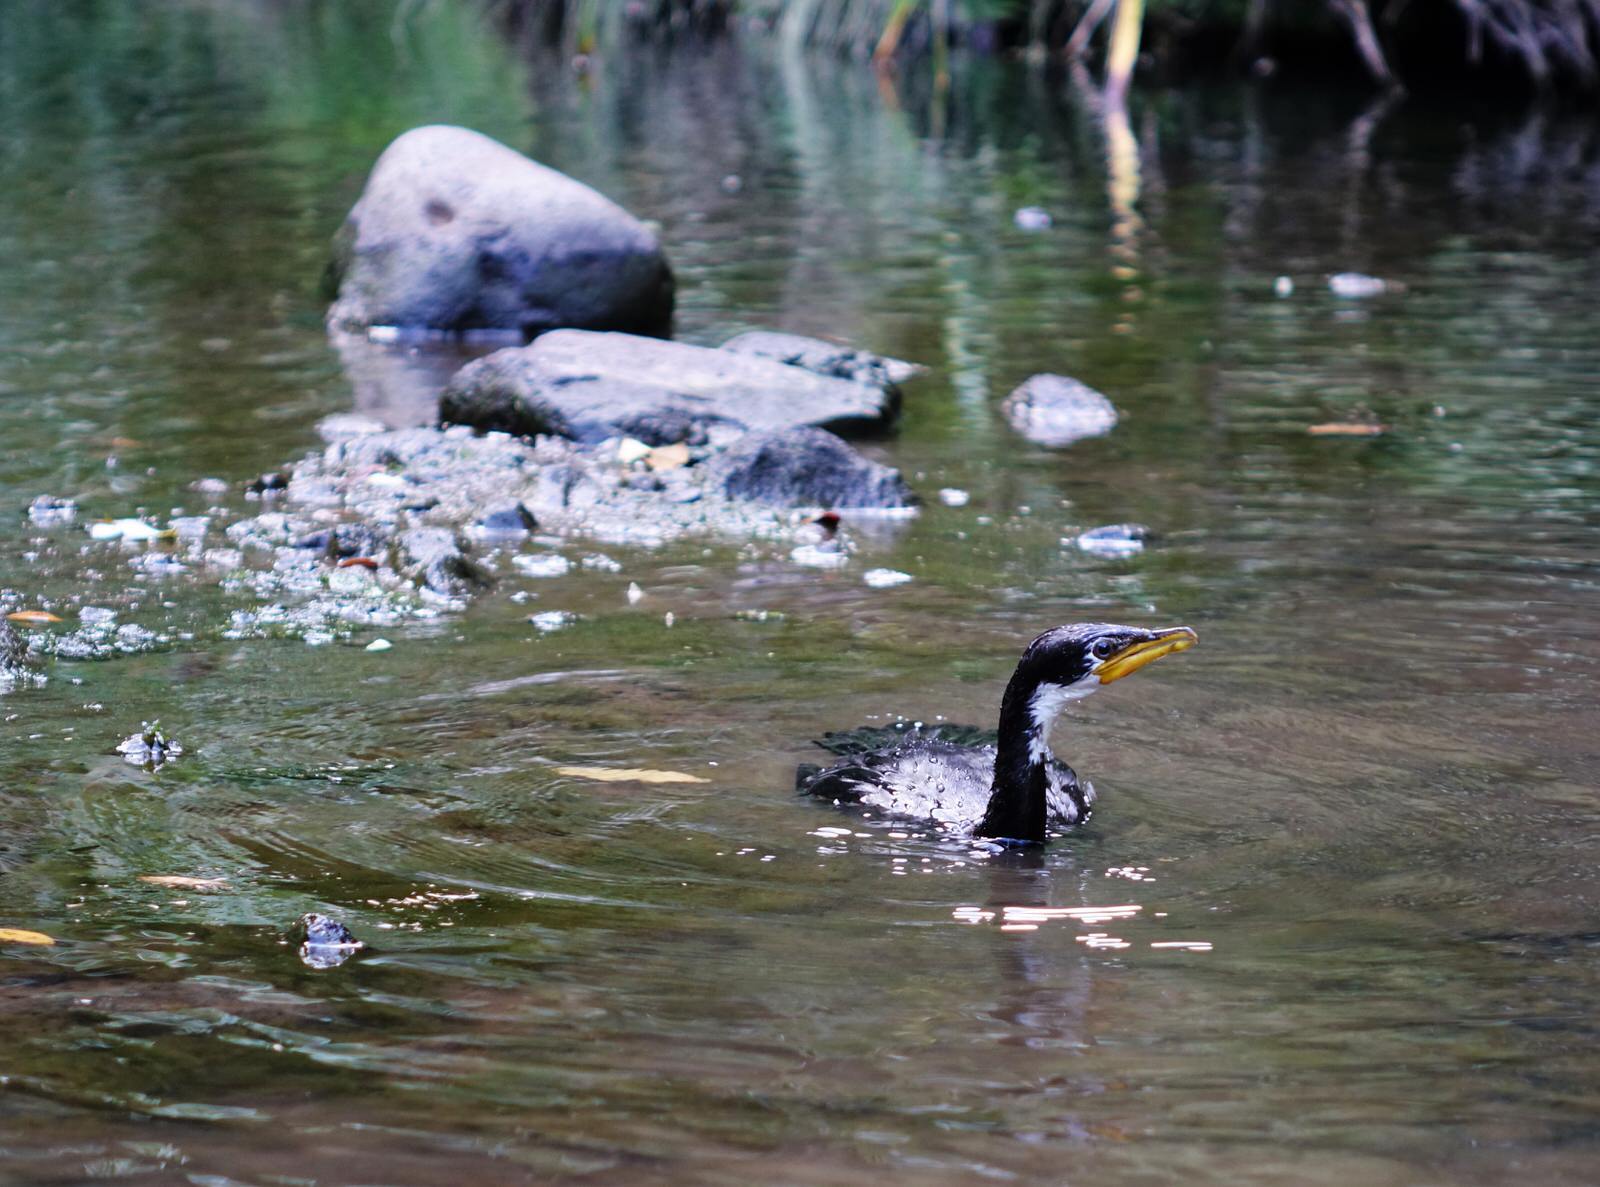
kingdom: Animalia
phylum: Chordata
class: Aves
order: Suliformes
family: Phalacrocoracidae
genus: Microcarbo
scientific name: Microcarbo melanoleucos
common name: Little pied cormorant
